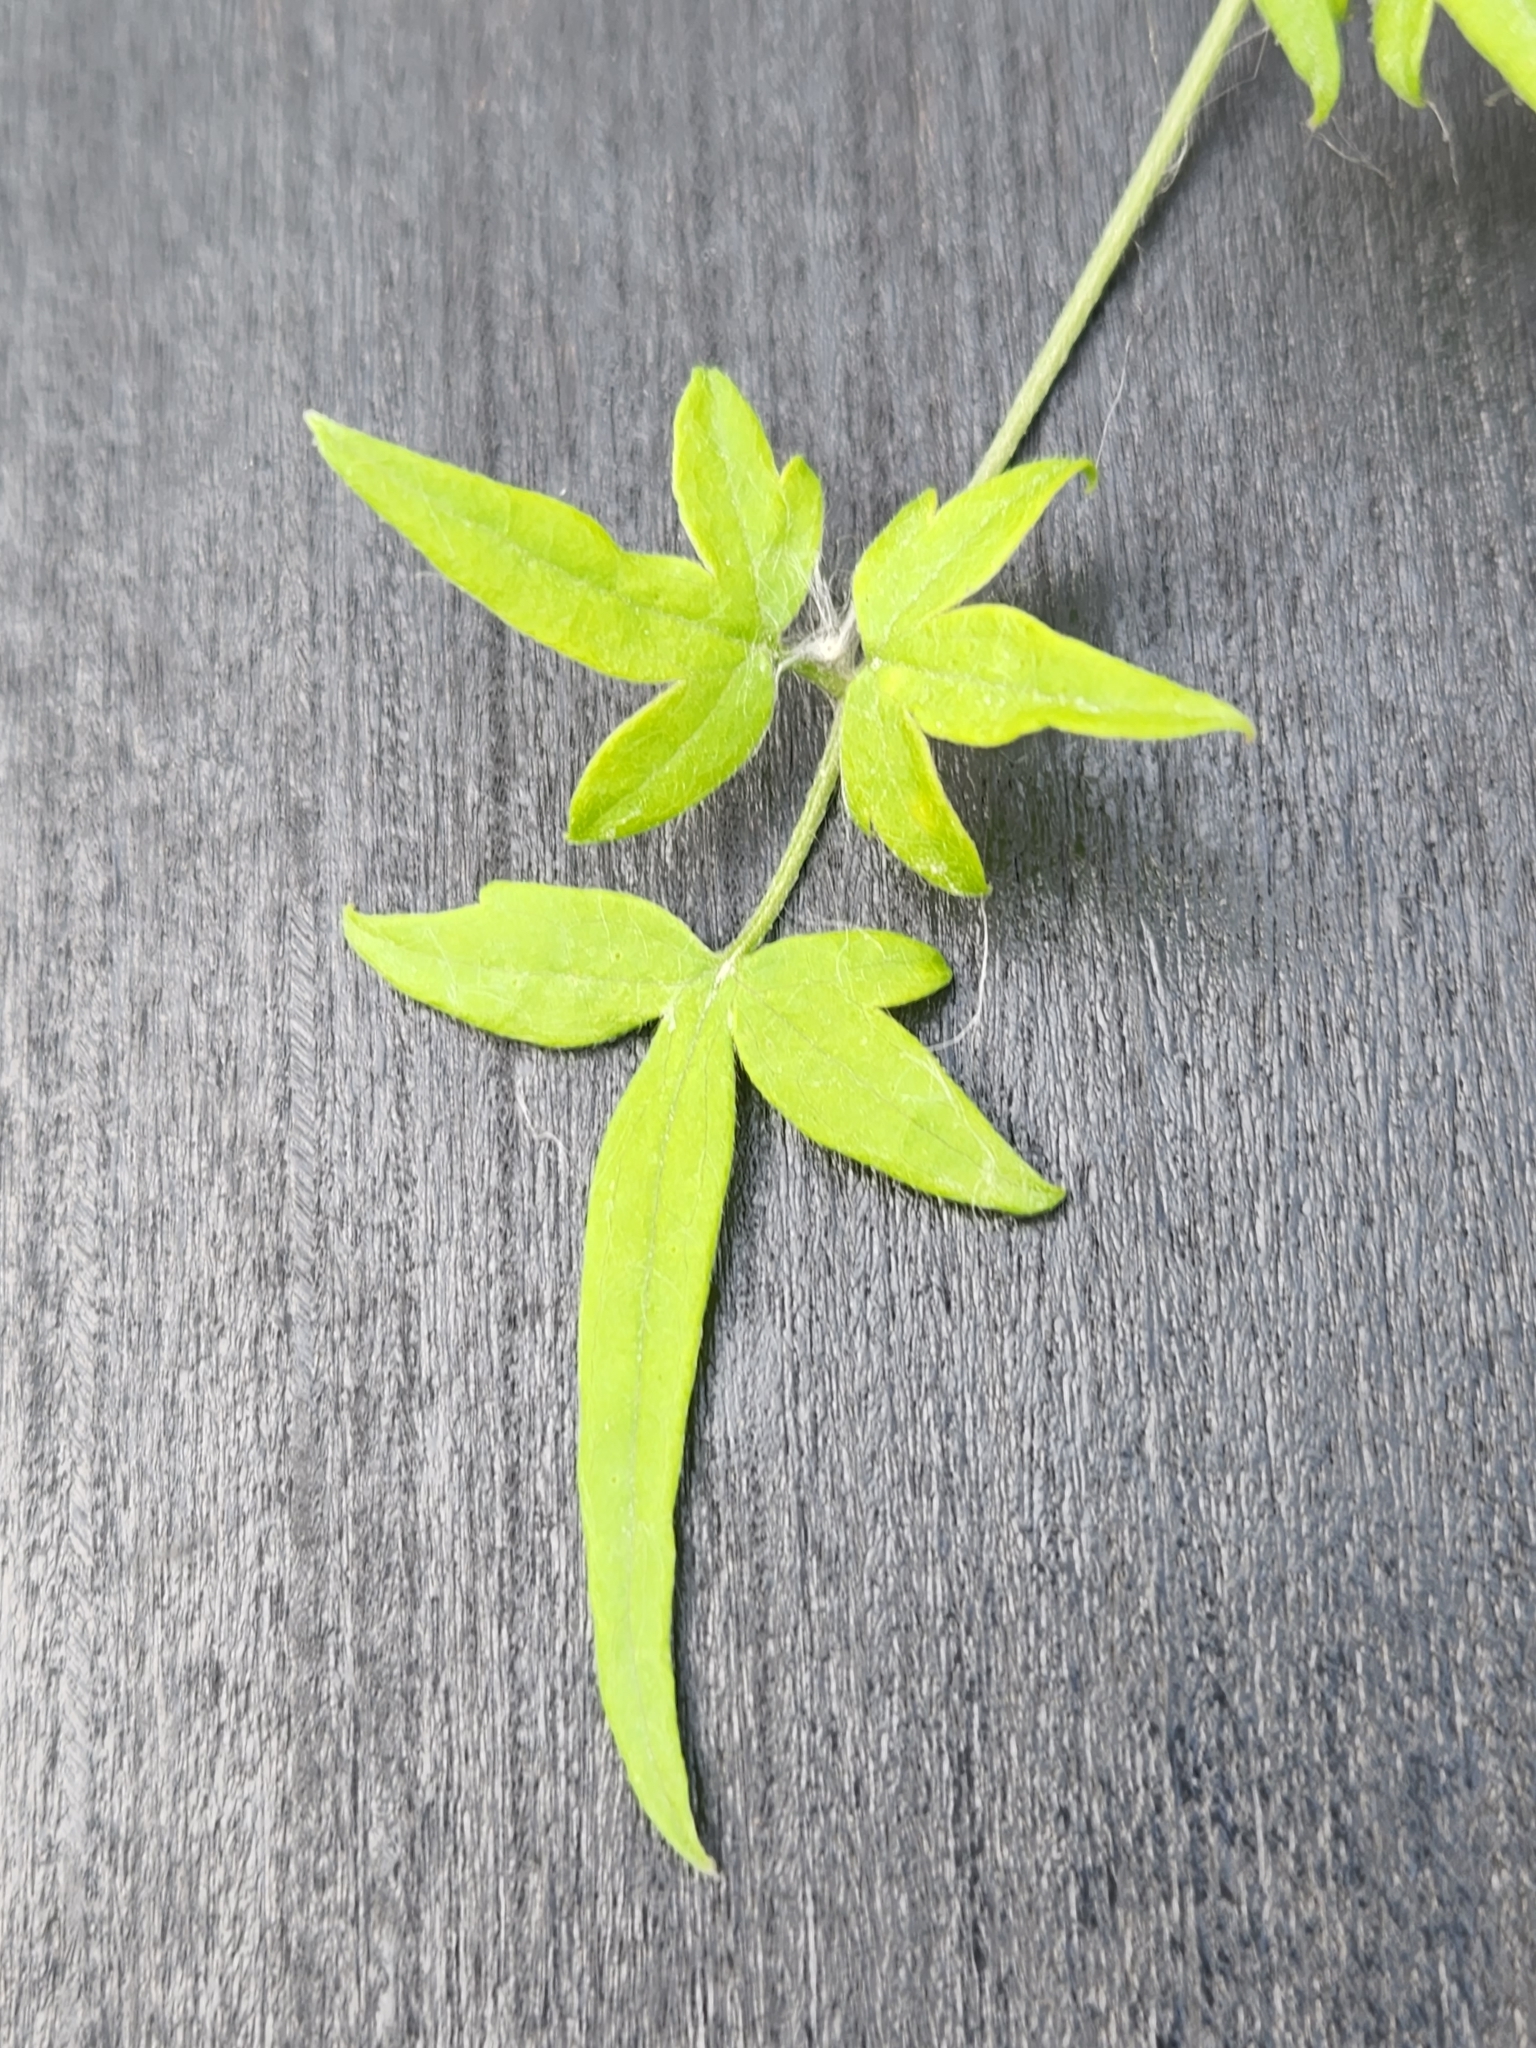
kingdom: Plantae
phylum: Tracheophyta
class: Magnoliopsida
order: Ranunculales
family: Ranunculaceae
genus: Clematis
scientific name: Clematis drummondii
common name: Texas virgin's bower
